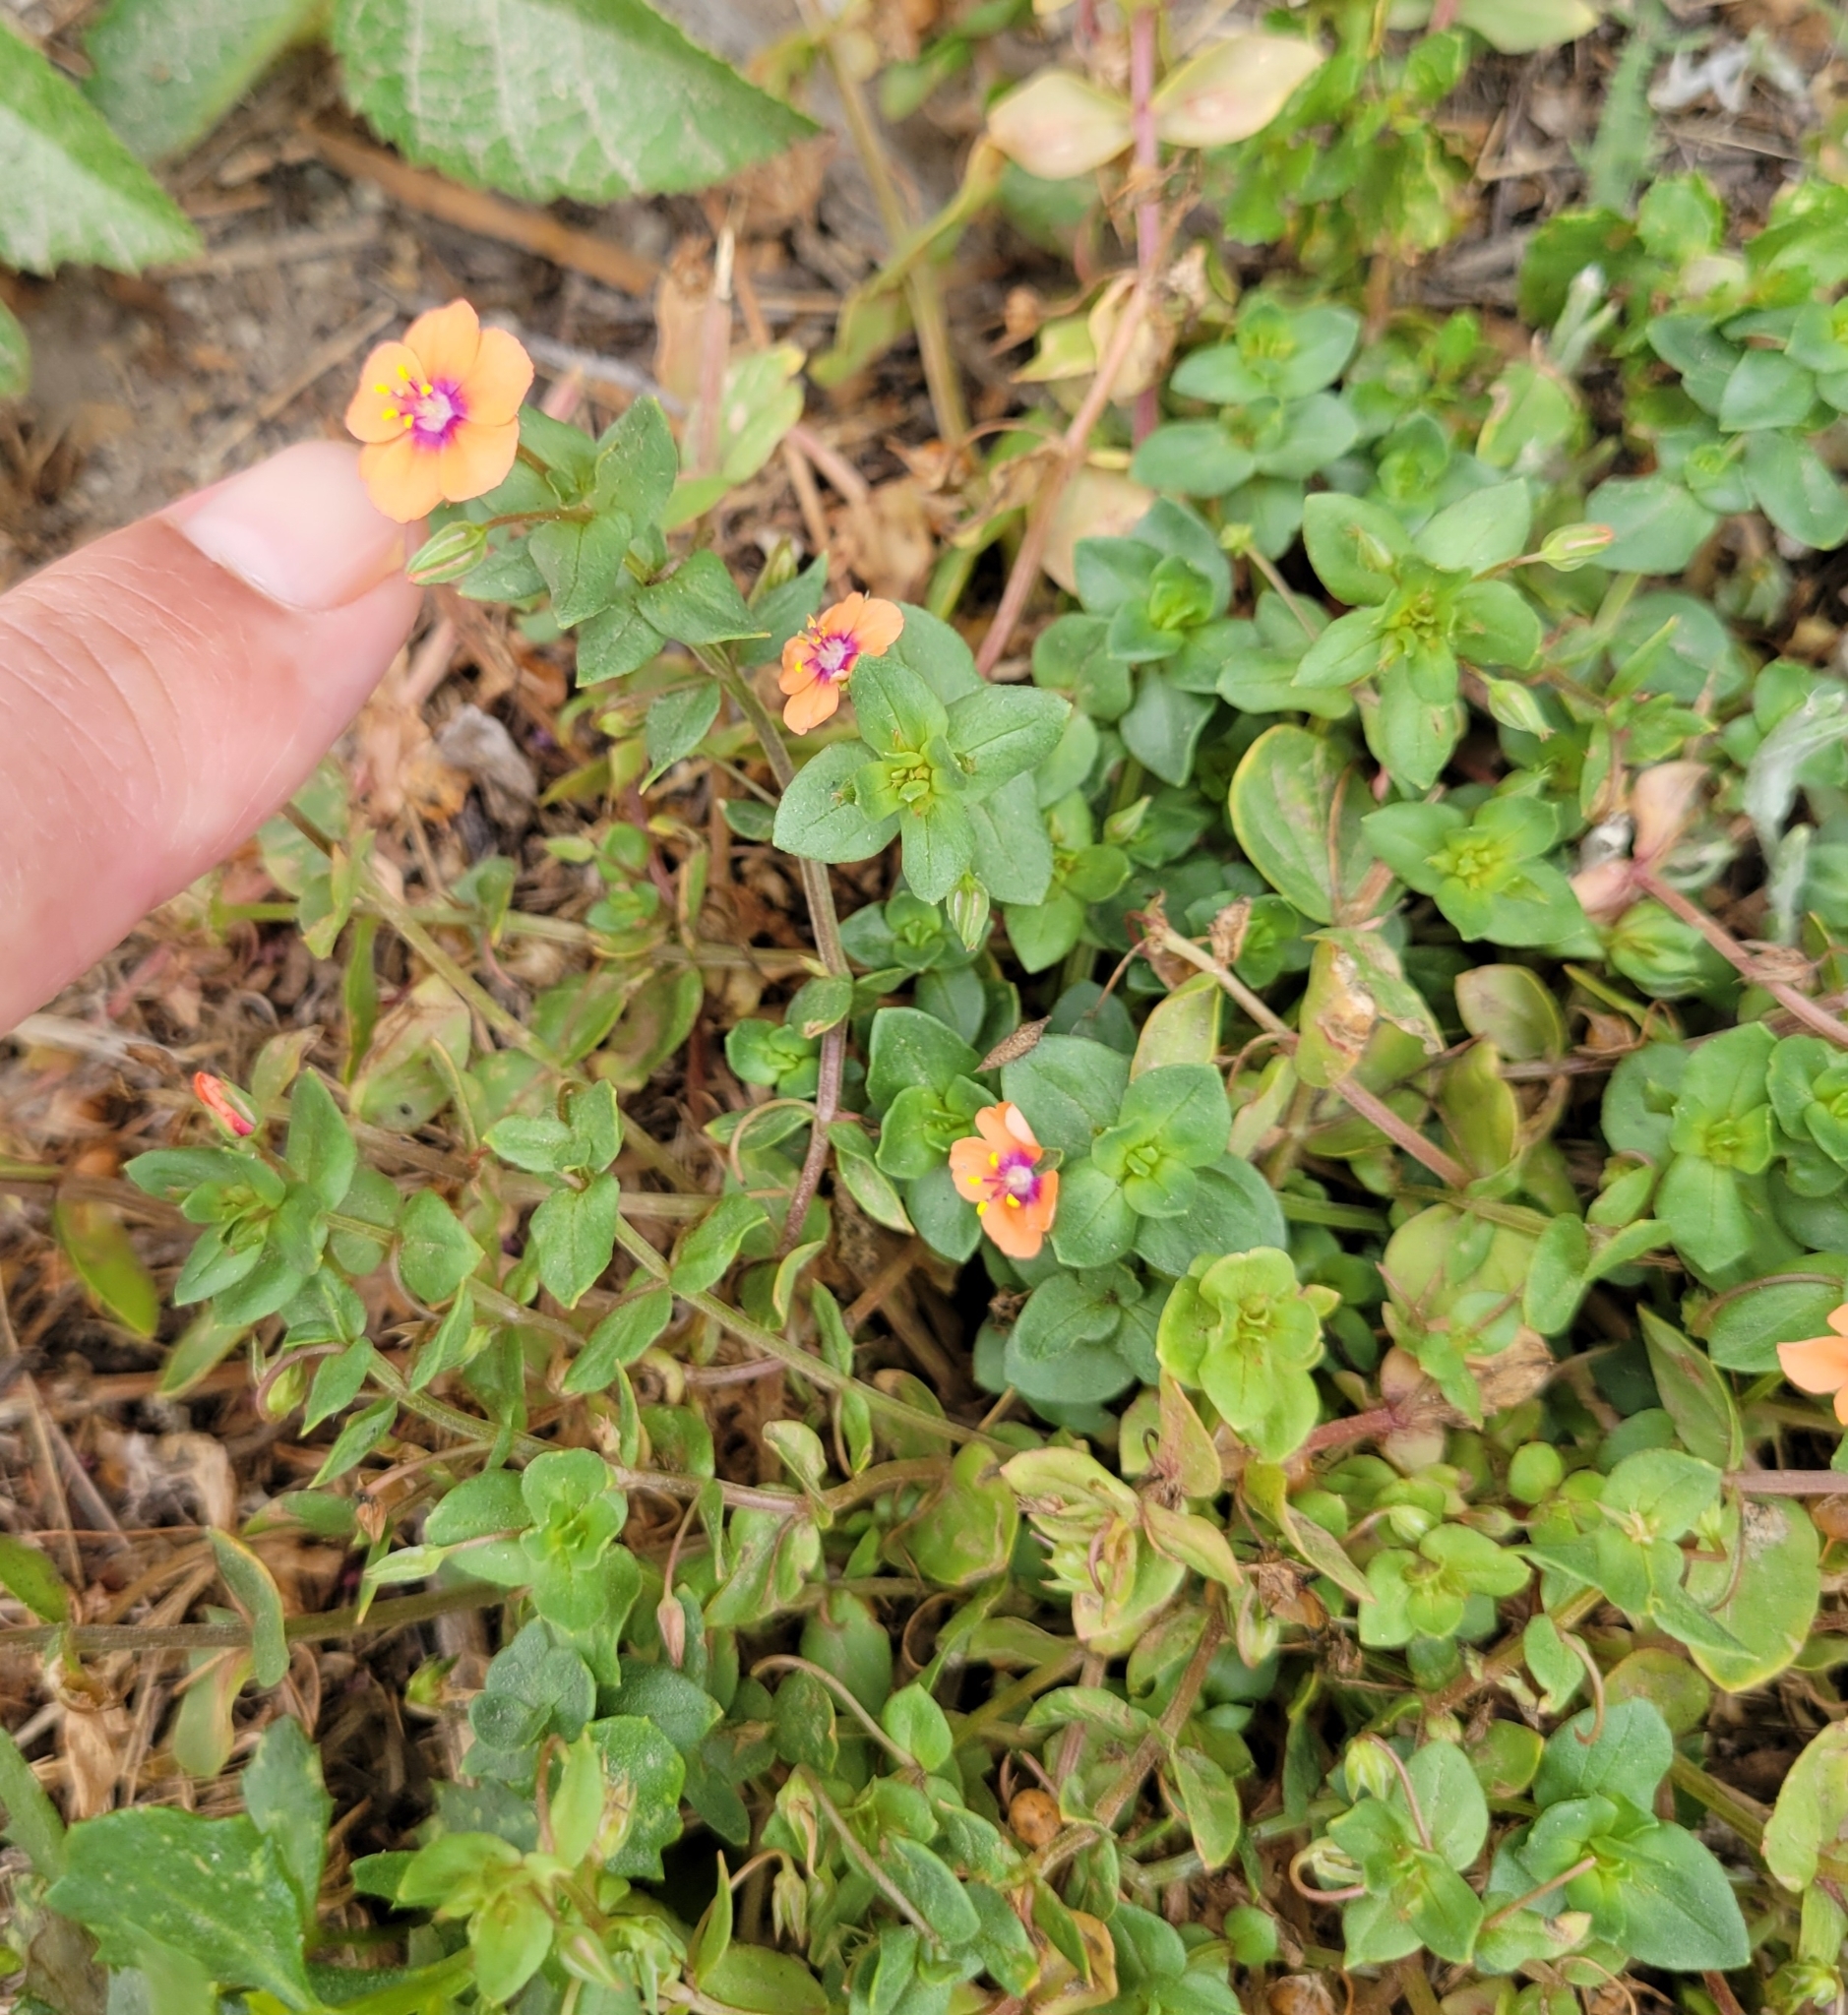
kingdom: Plantae
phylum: Tracheophyta
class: Magnoliopsida
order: Ericales
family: Primulaceae
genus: Lysimachia
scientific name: Lysimachia arvensis
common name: Scarlet pimpernel
